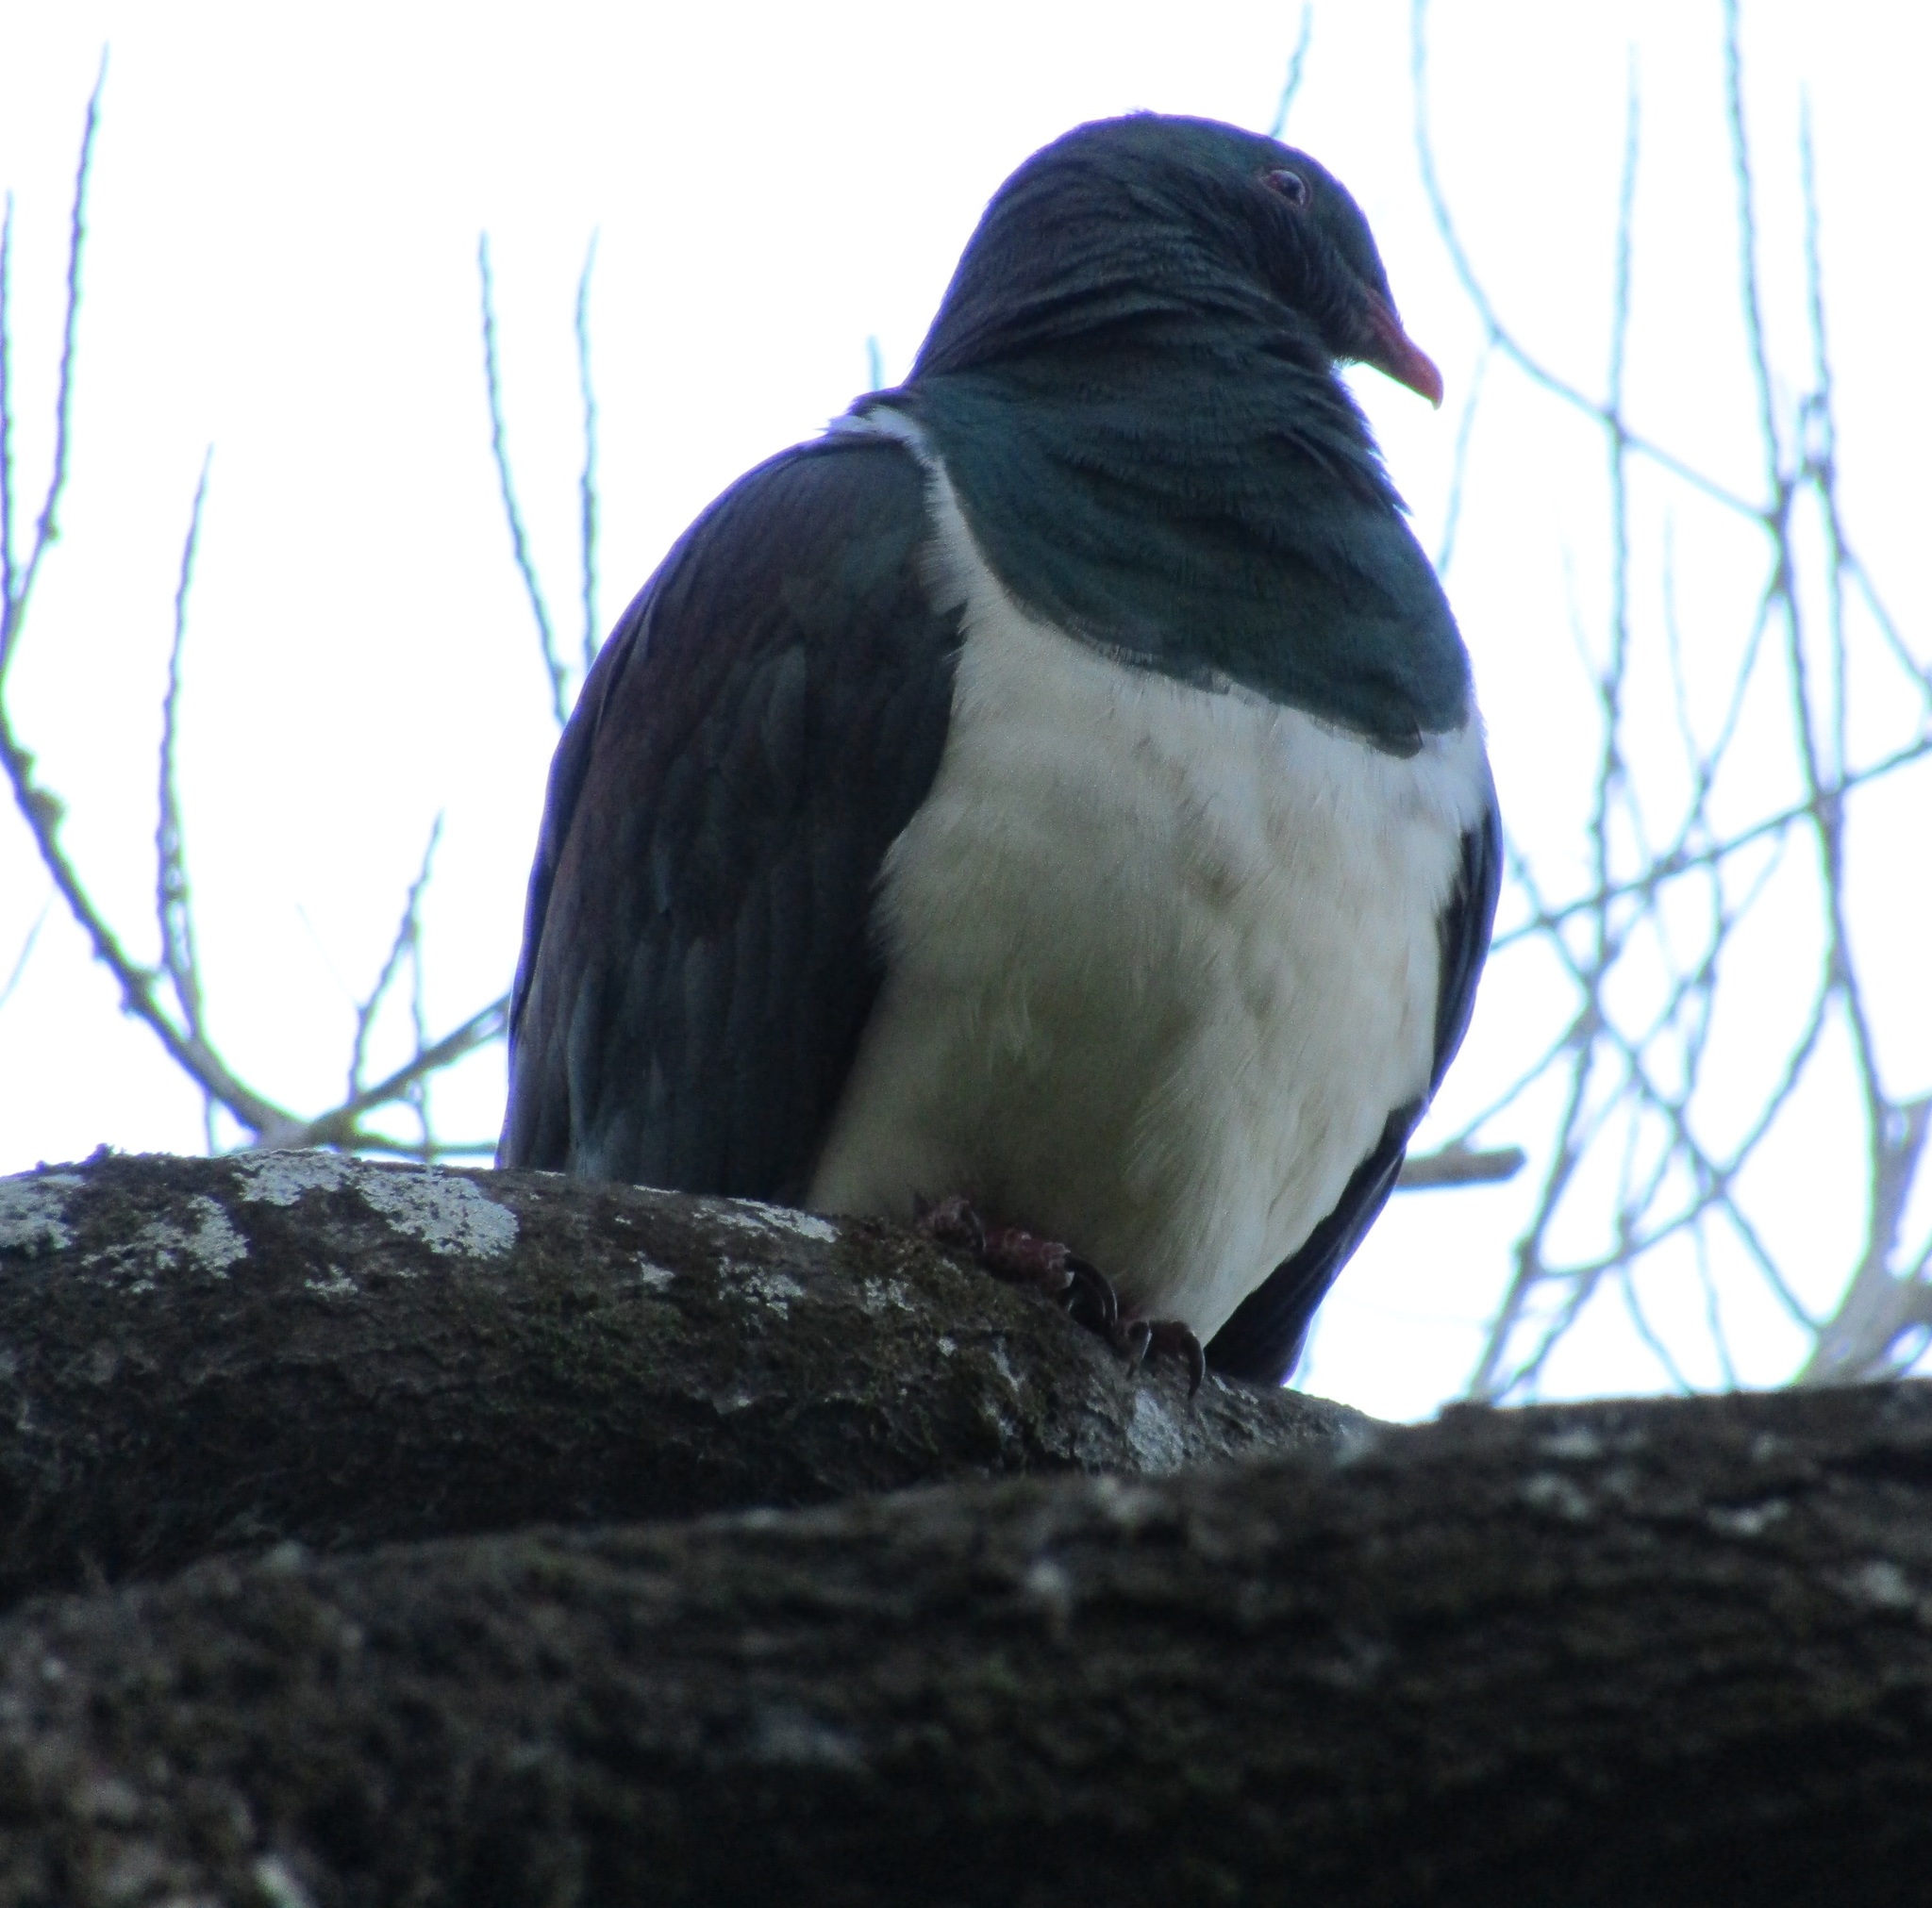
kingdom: Animalia
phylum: Chordata
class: Aves
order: Columbiformes
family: Columbidae
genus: Hemiphaga
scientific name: Hemiphaga novaeseelandiae
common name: New zealand pigeon
